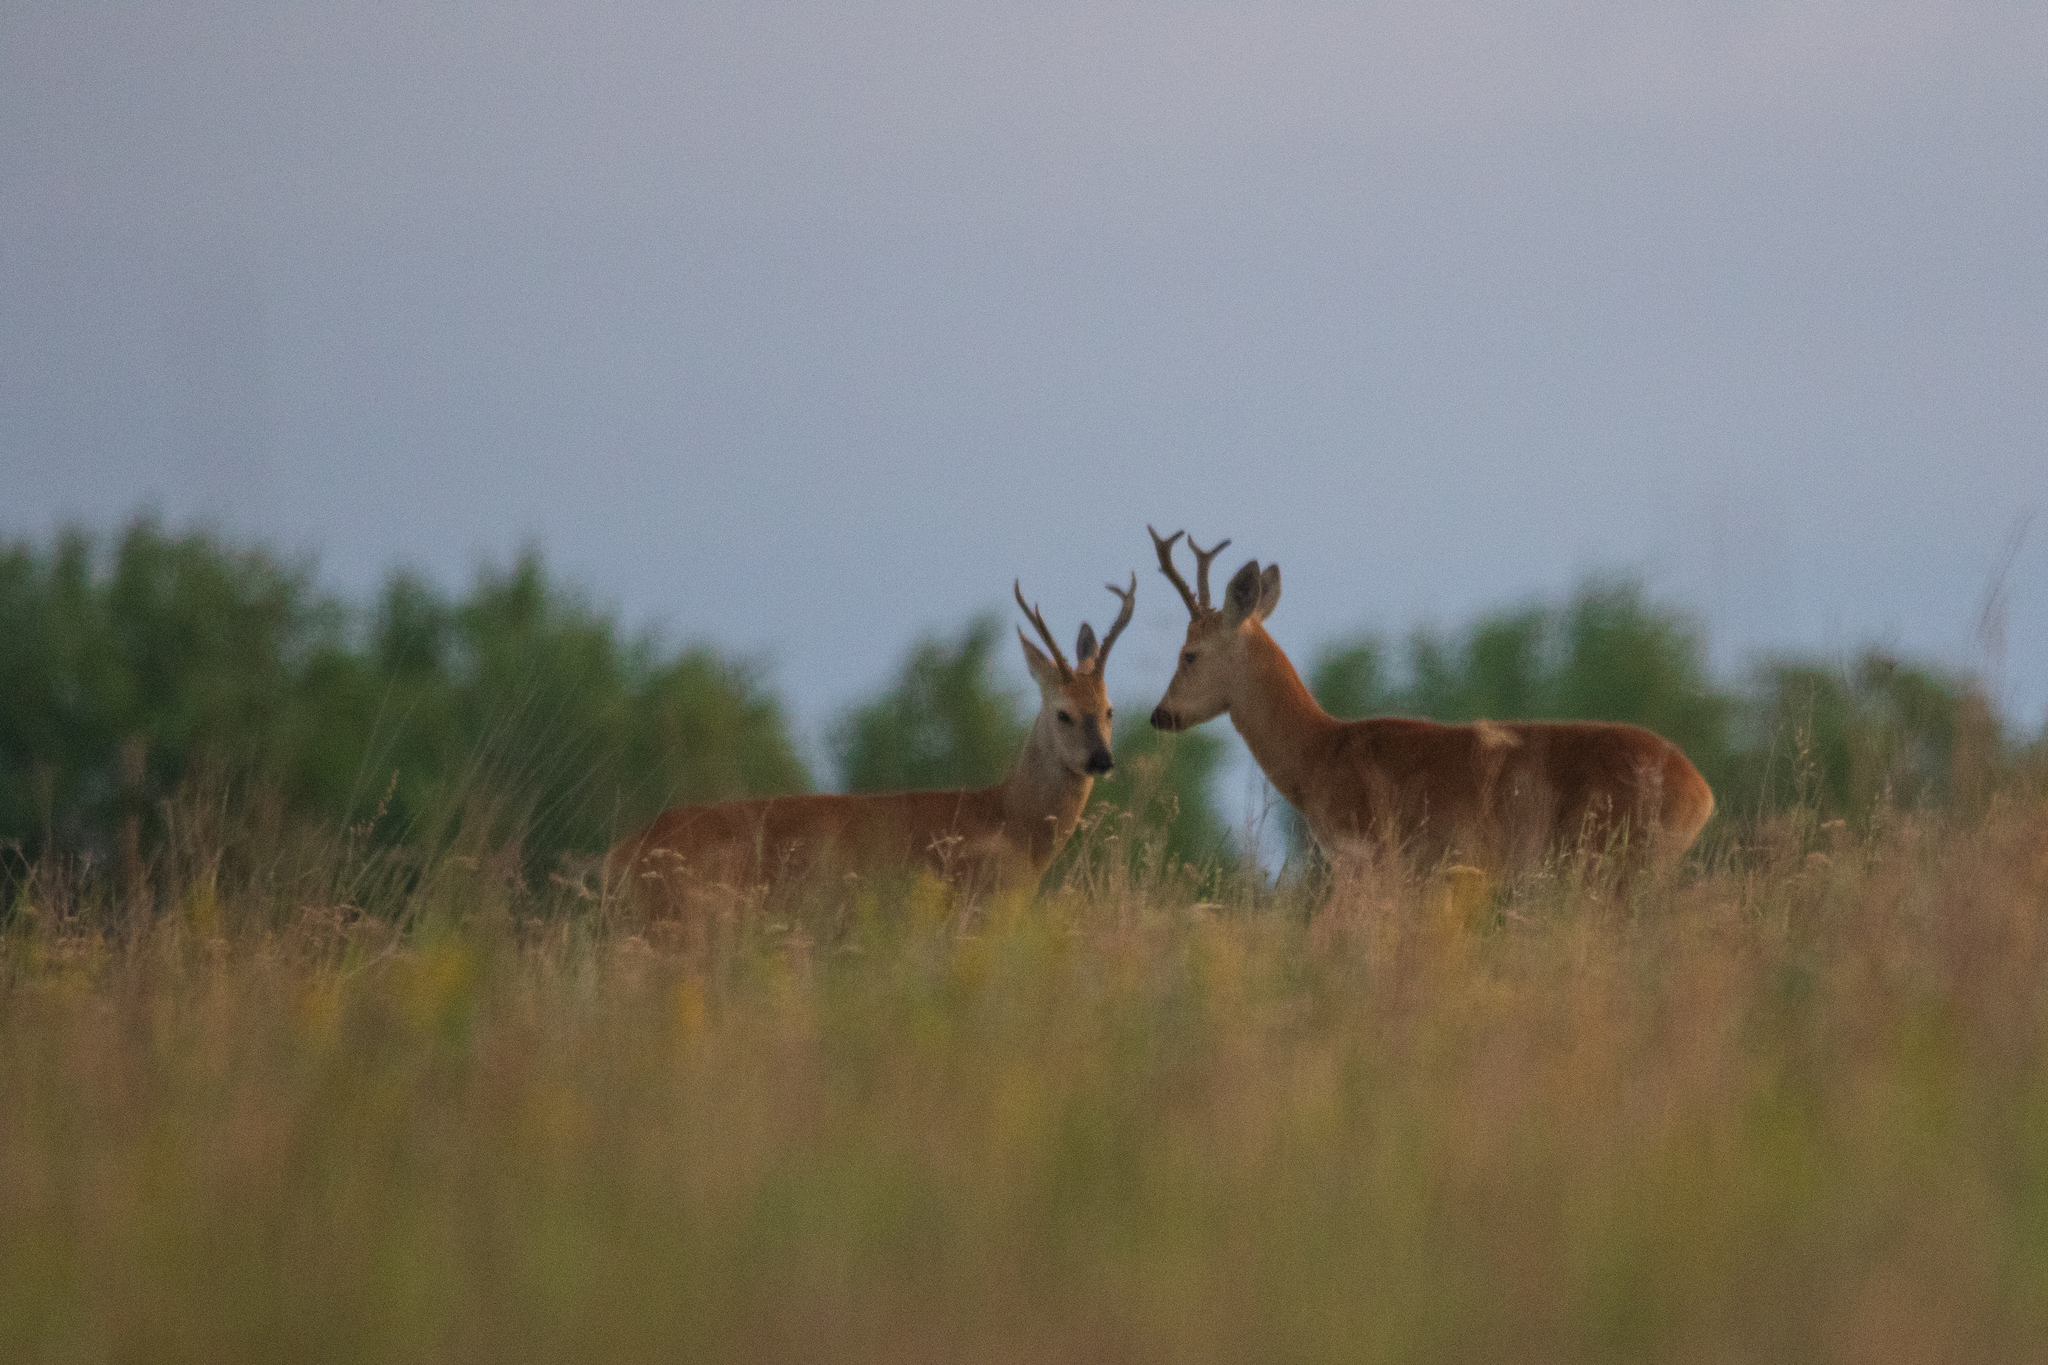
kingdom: Animalia
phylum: Chordata
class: Mammalia
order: Artiodactyla
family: Cervidae
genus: Capreolus
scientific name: Capreolus pygargus
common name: Siberian roe
